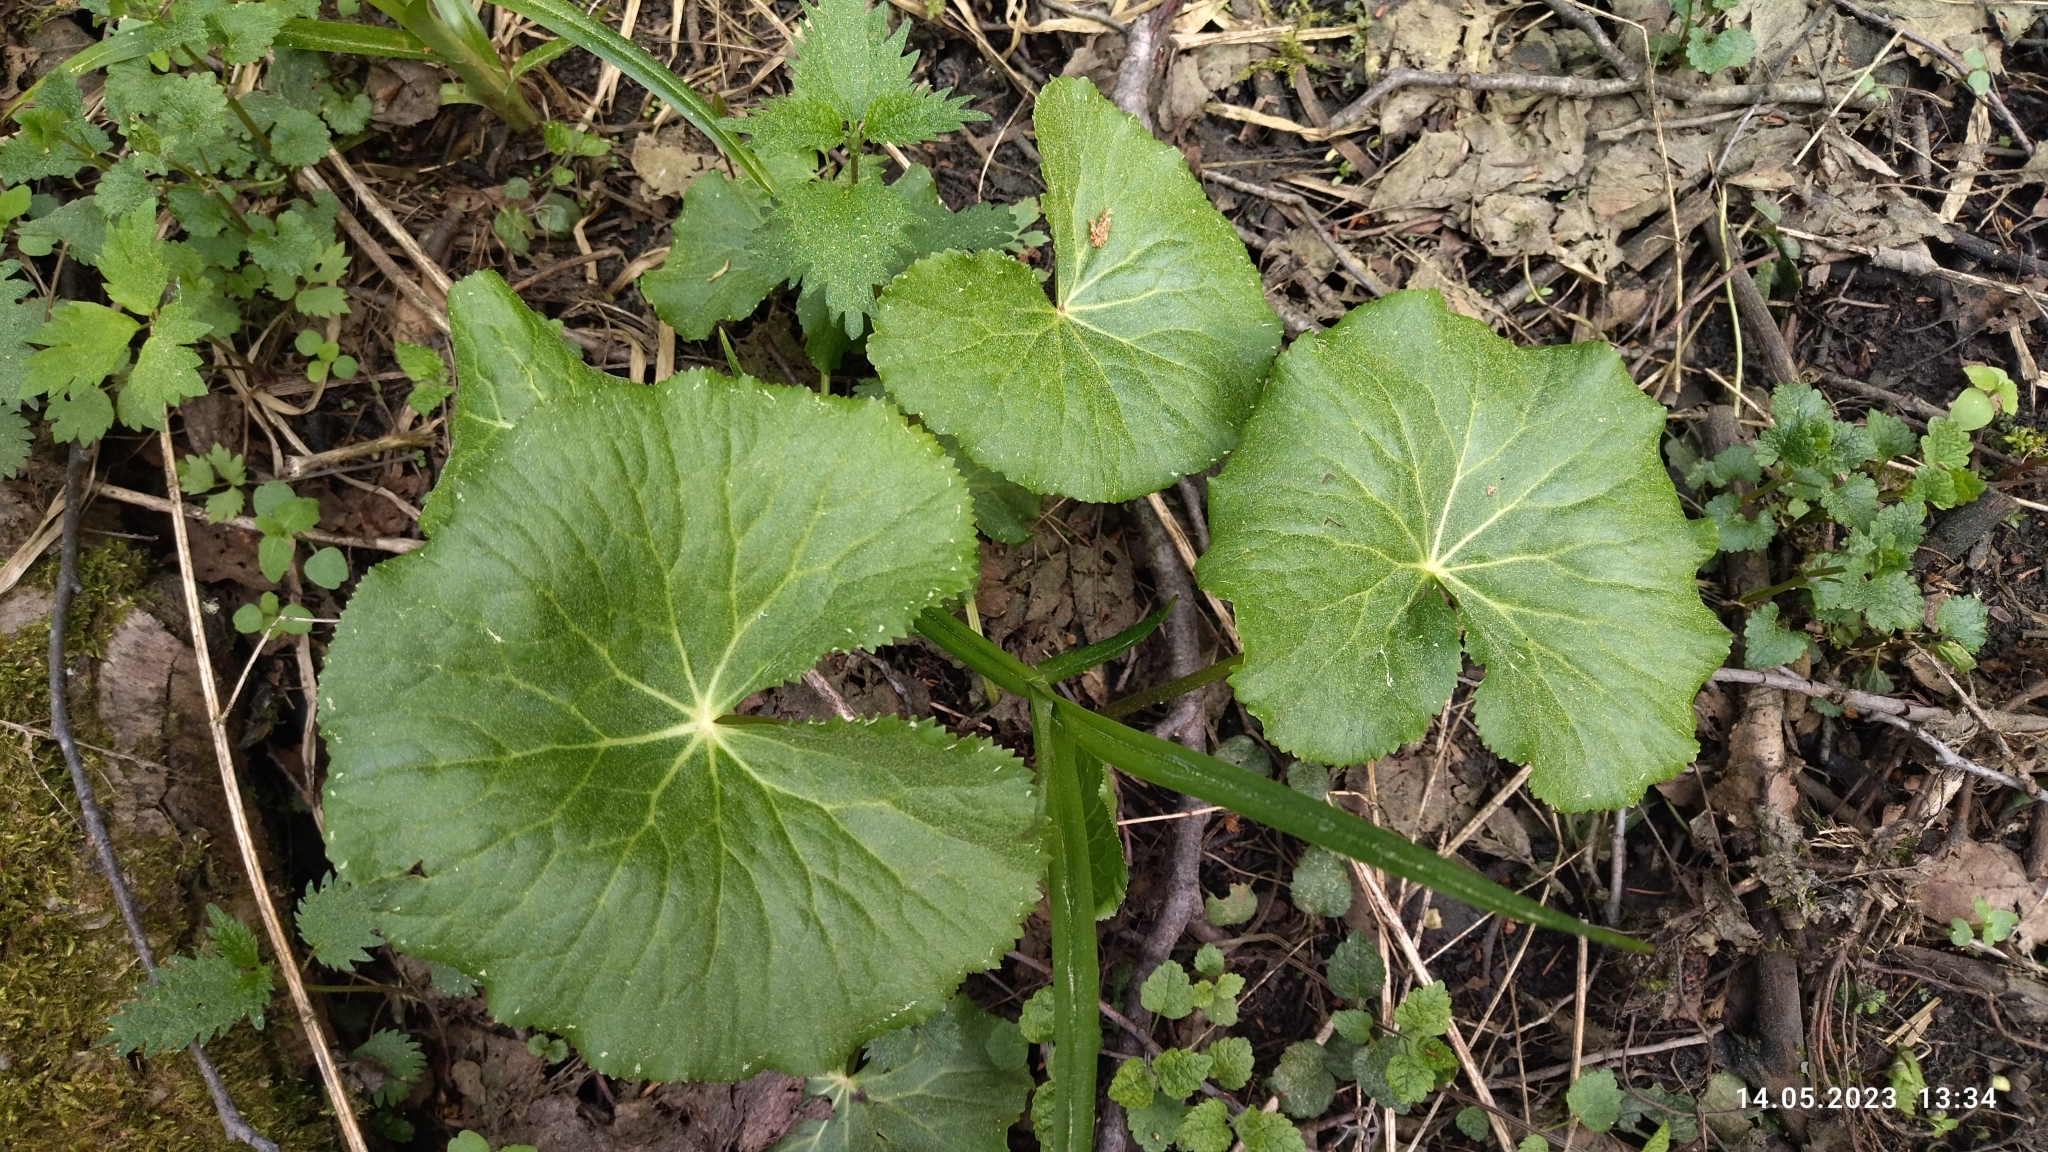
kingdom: Plantae
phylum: Tracheophyta
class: Magnoliopsida
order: Ranunculales
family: Ranunculaceae
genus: Caltha
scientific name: Caltha palustris
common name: Marsh marigold
